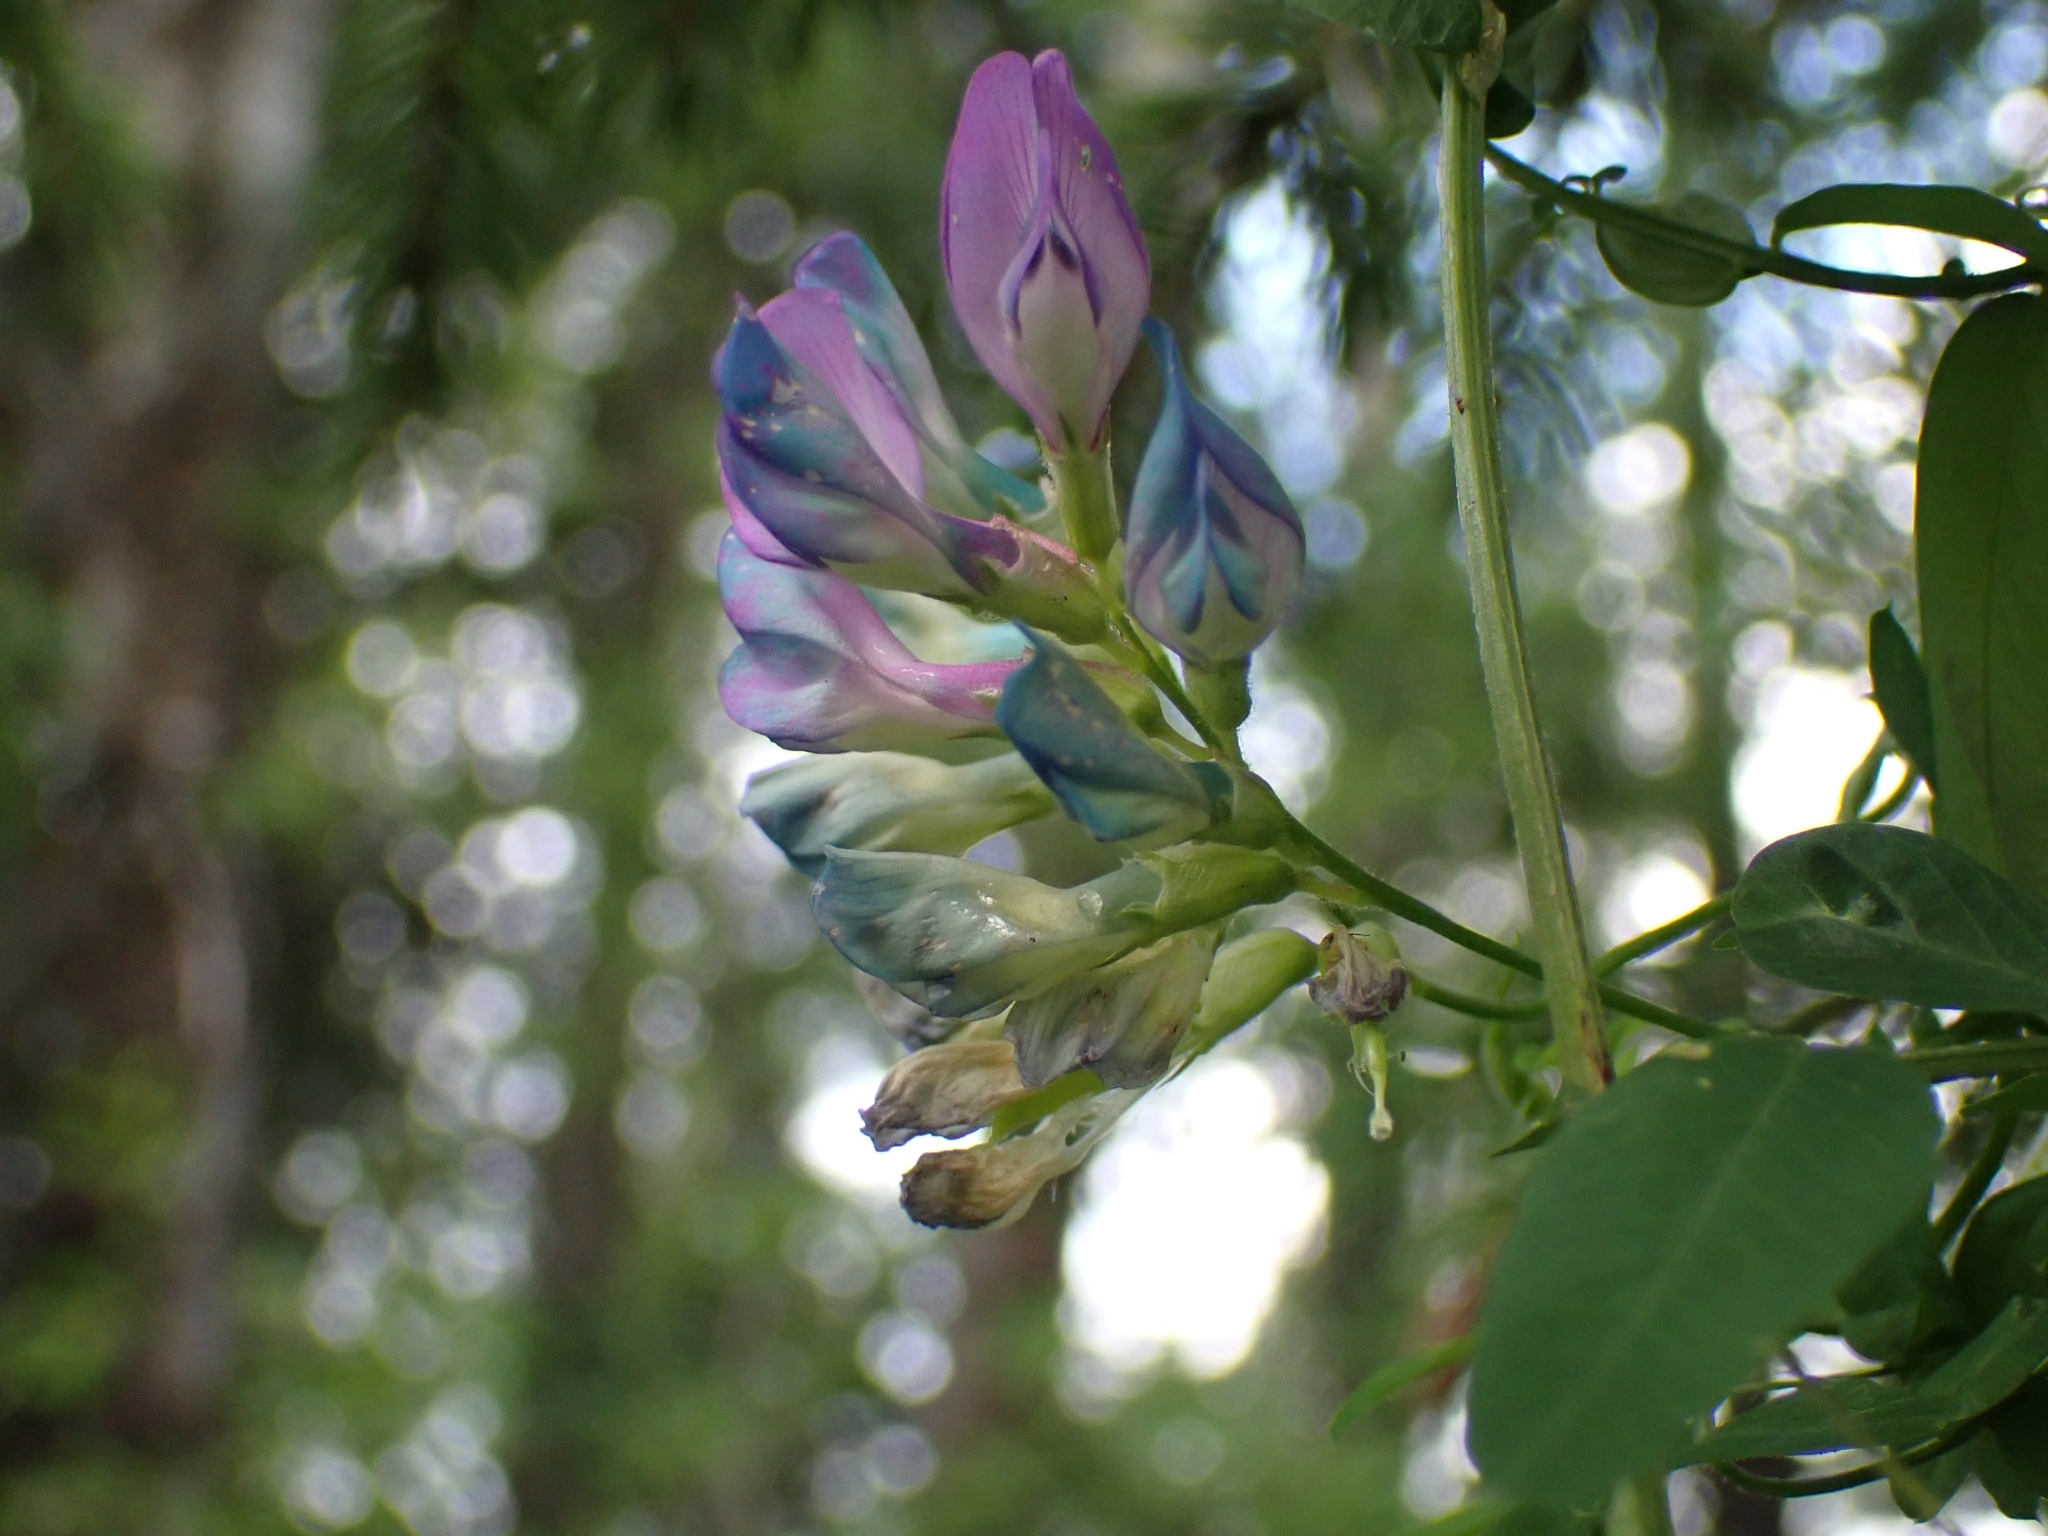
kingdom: Plantae
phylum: Tracheophyta
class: Magnoliopsida
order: Fabales
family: Fabaceae
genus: Vicia
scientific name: Vicia americana
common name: American vetch
